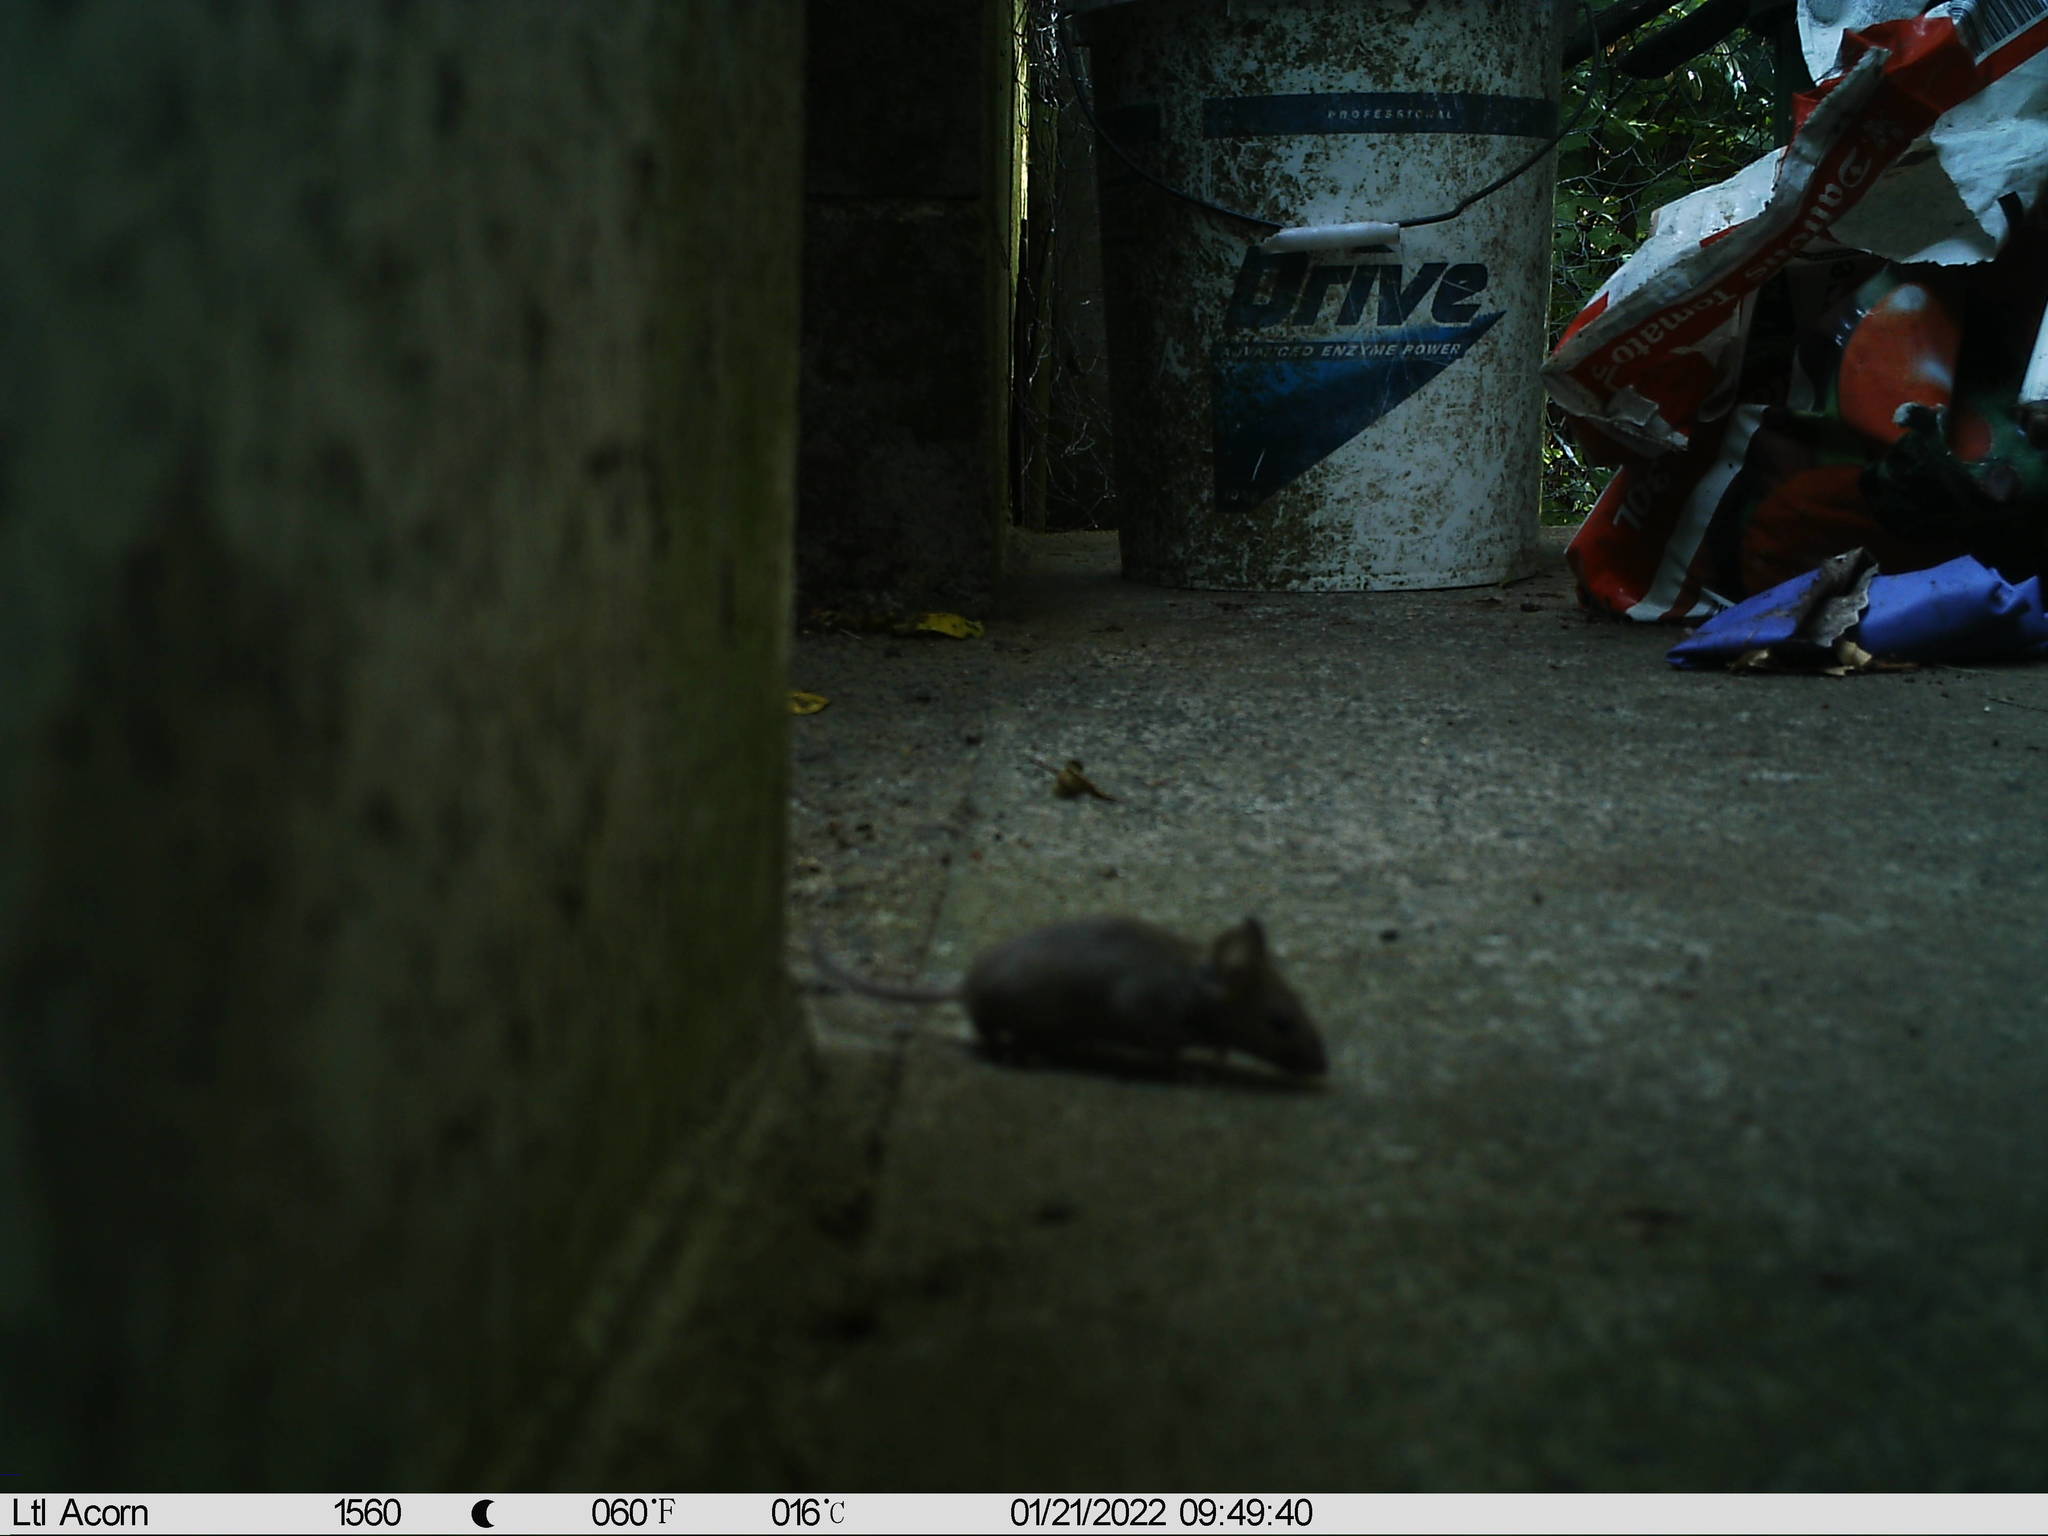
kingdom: Animalia
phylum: Chordata
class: Mammalia
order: Rodentia
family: Muridae
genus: Mus
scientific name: Mus musculus
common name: House mouse
